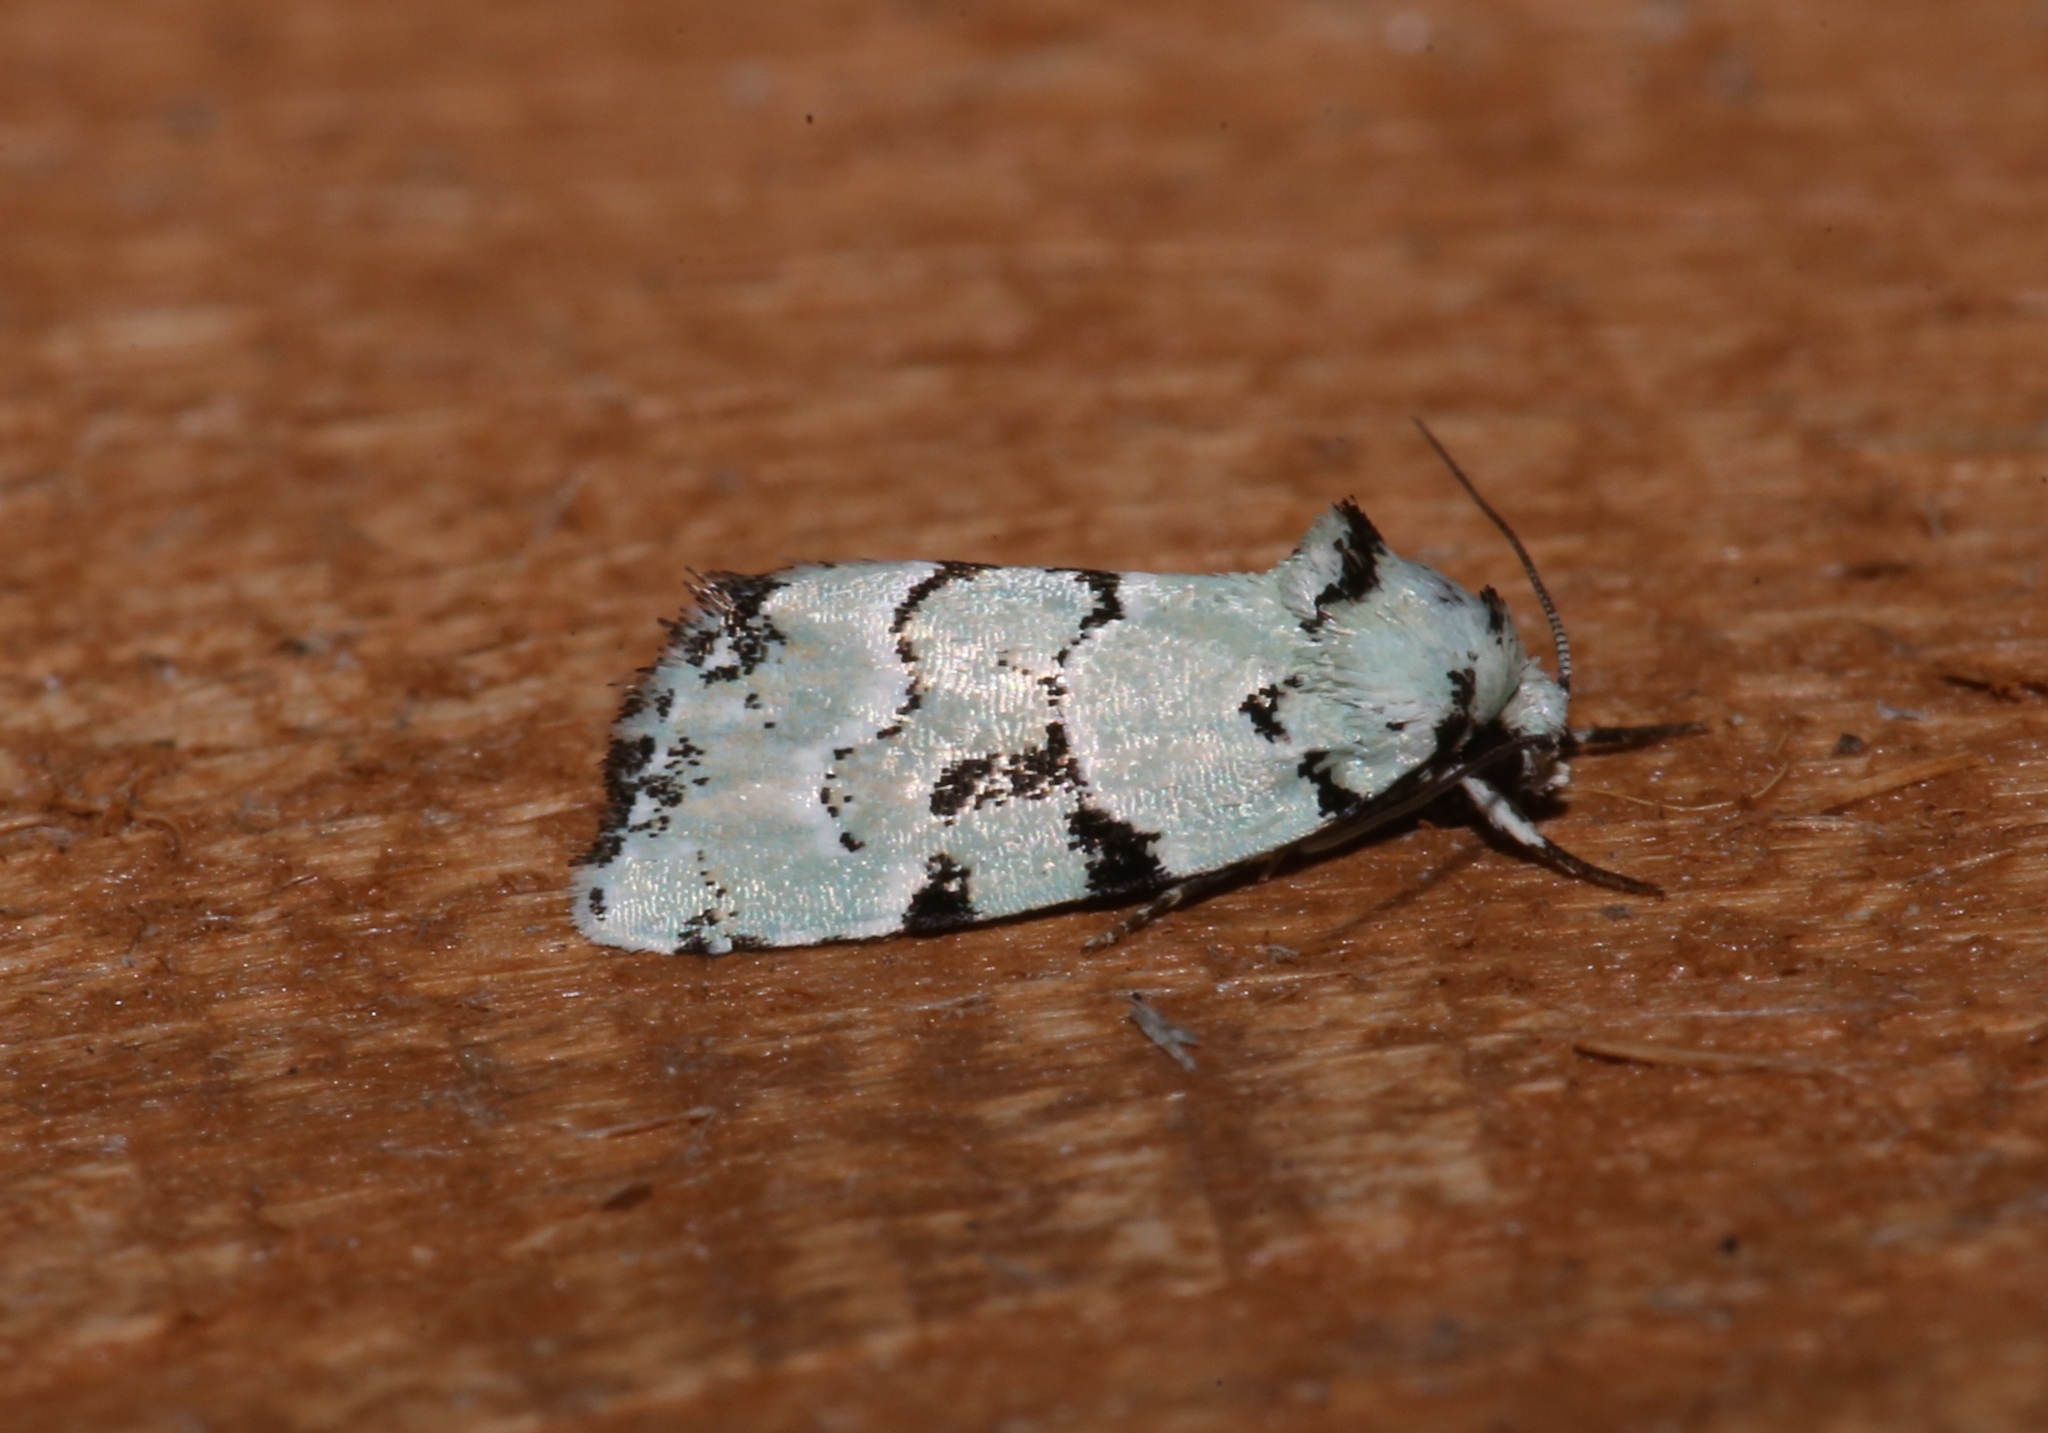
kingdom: Animalia
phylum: Arthropoda
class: Insecta
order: Lepidoptera
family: Noctuidae
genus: Elaphria
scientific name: Elaphria cyanympha
